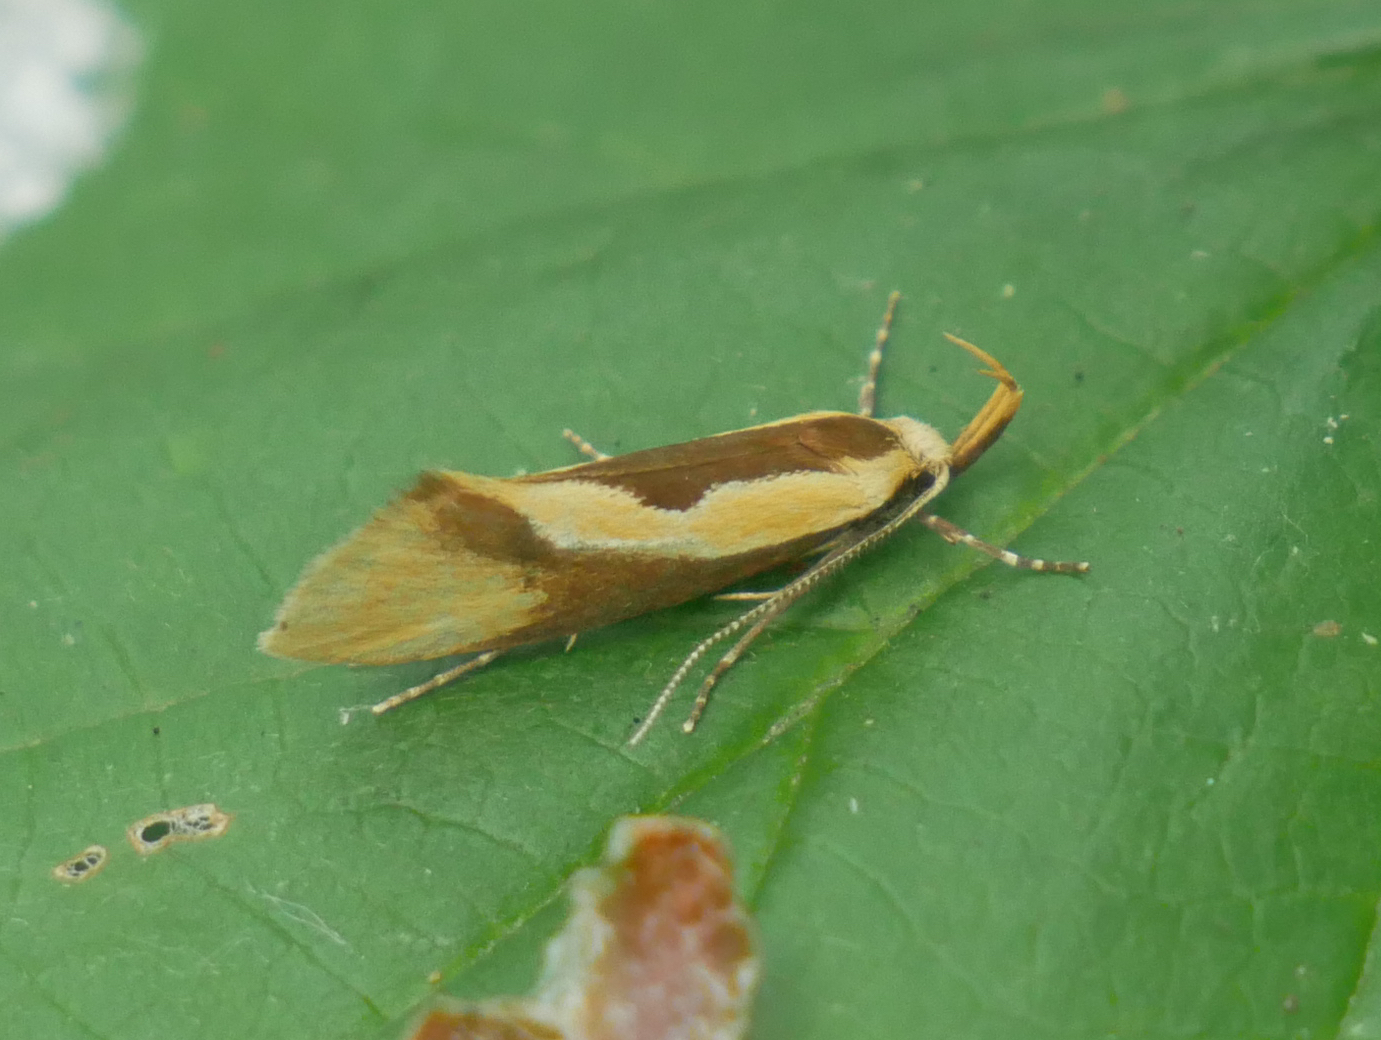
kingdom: Animalia
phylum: Arthropoda
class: Insecta
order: Lepidoptera
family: Oecophoridae
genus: Harpella
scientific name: Harpella forficella
